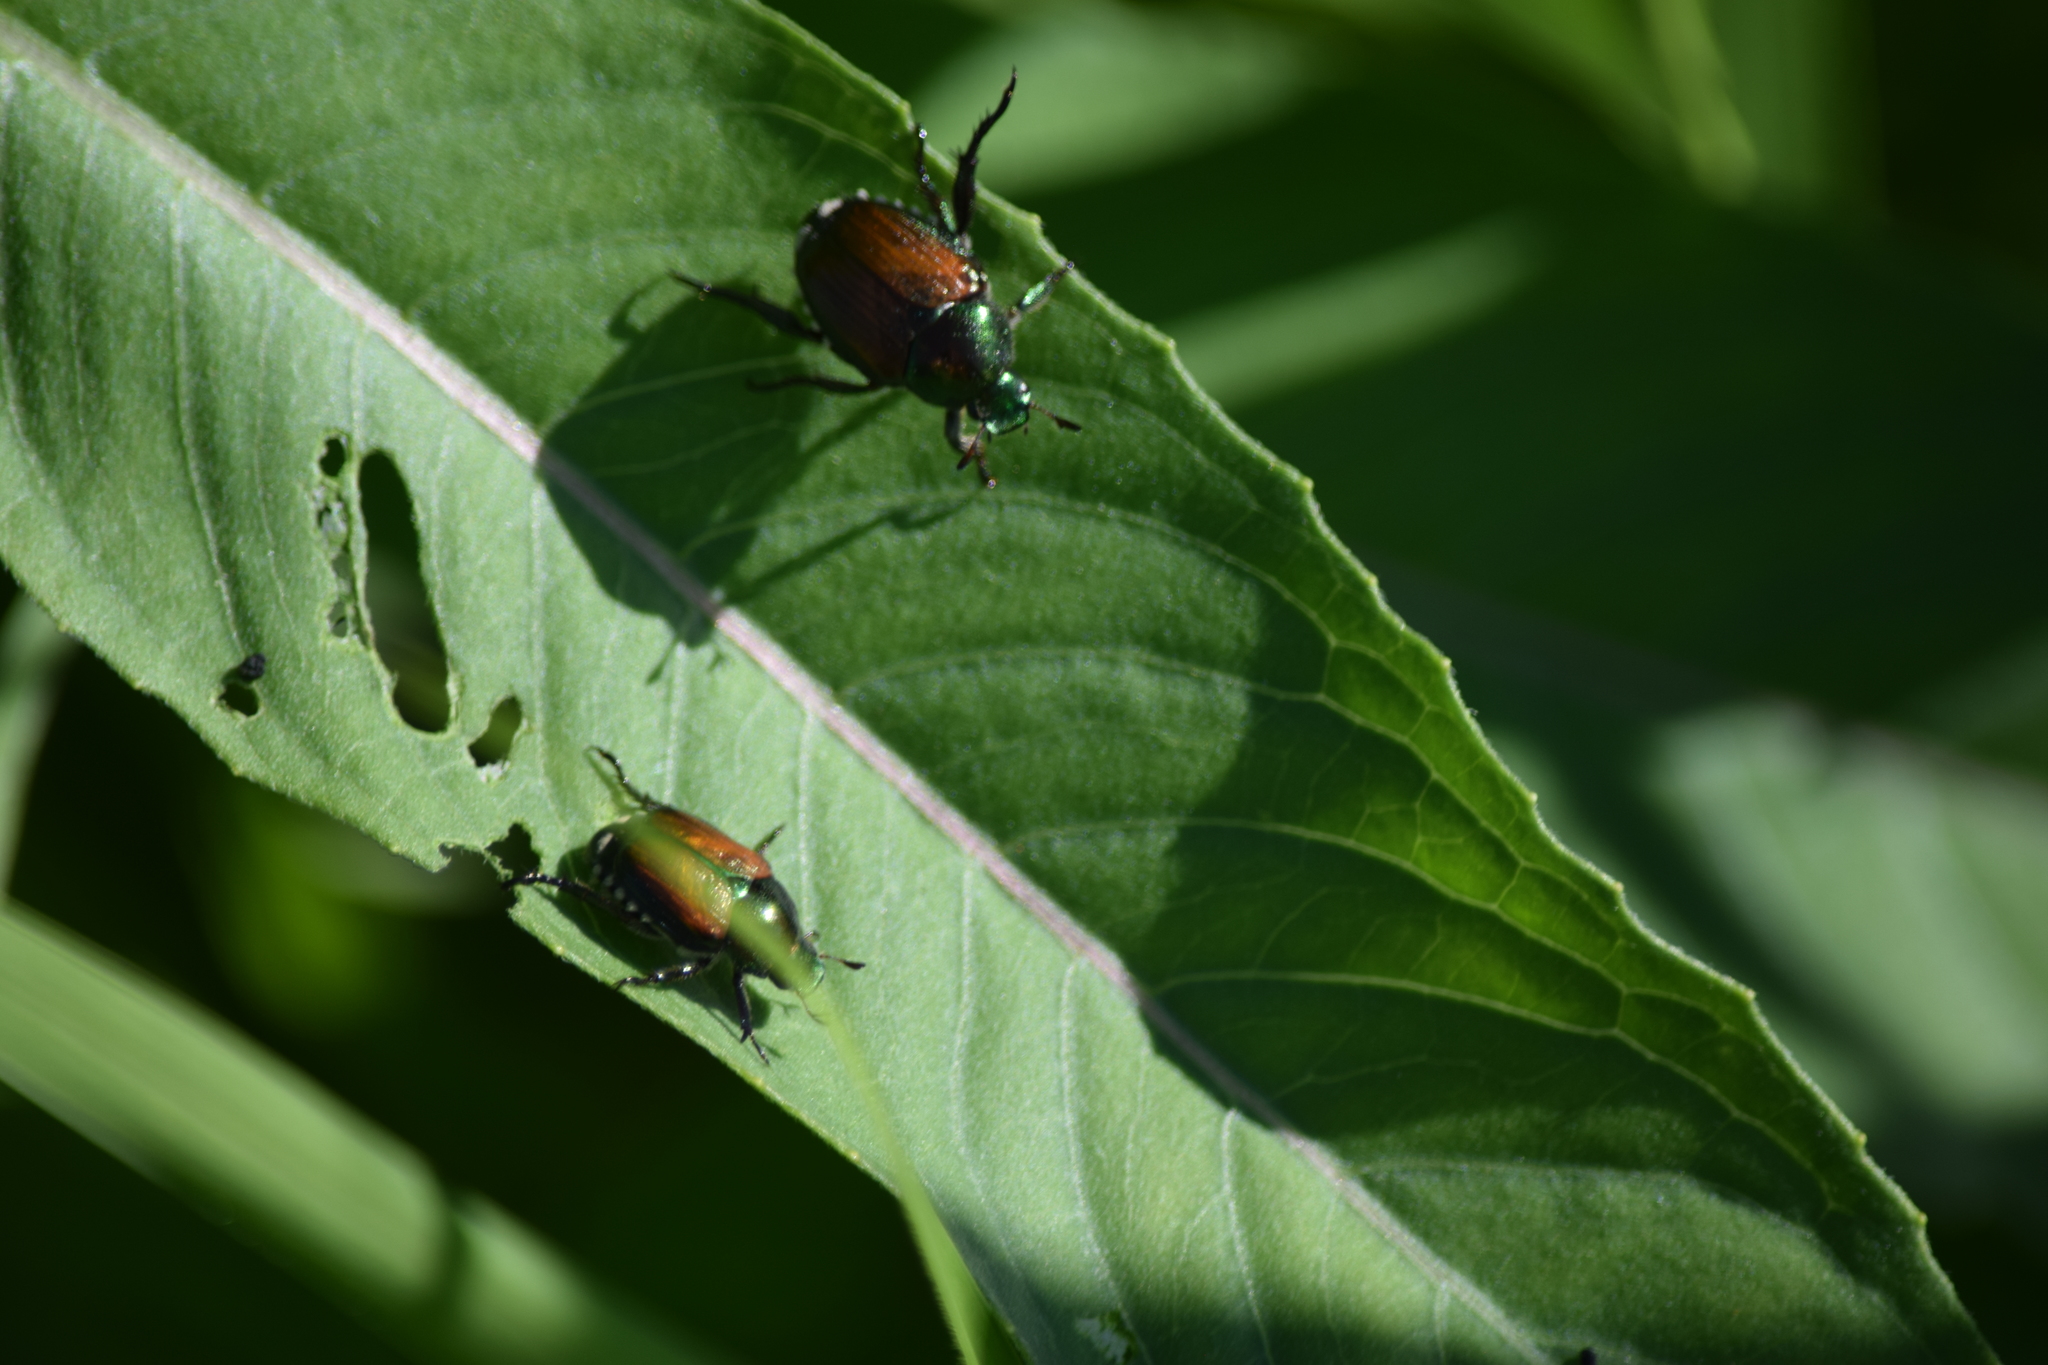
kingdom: Animalia
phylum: Arthropoda
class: Insecta
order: Coleoptera
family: Scarabaeidae
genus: Popillia
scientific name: Popillia japonica
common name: Japanese beetle
